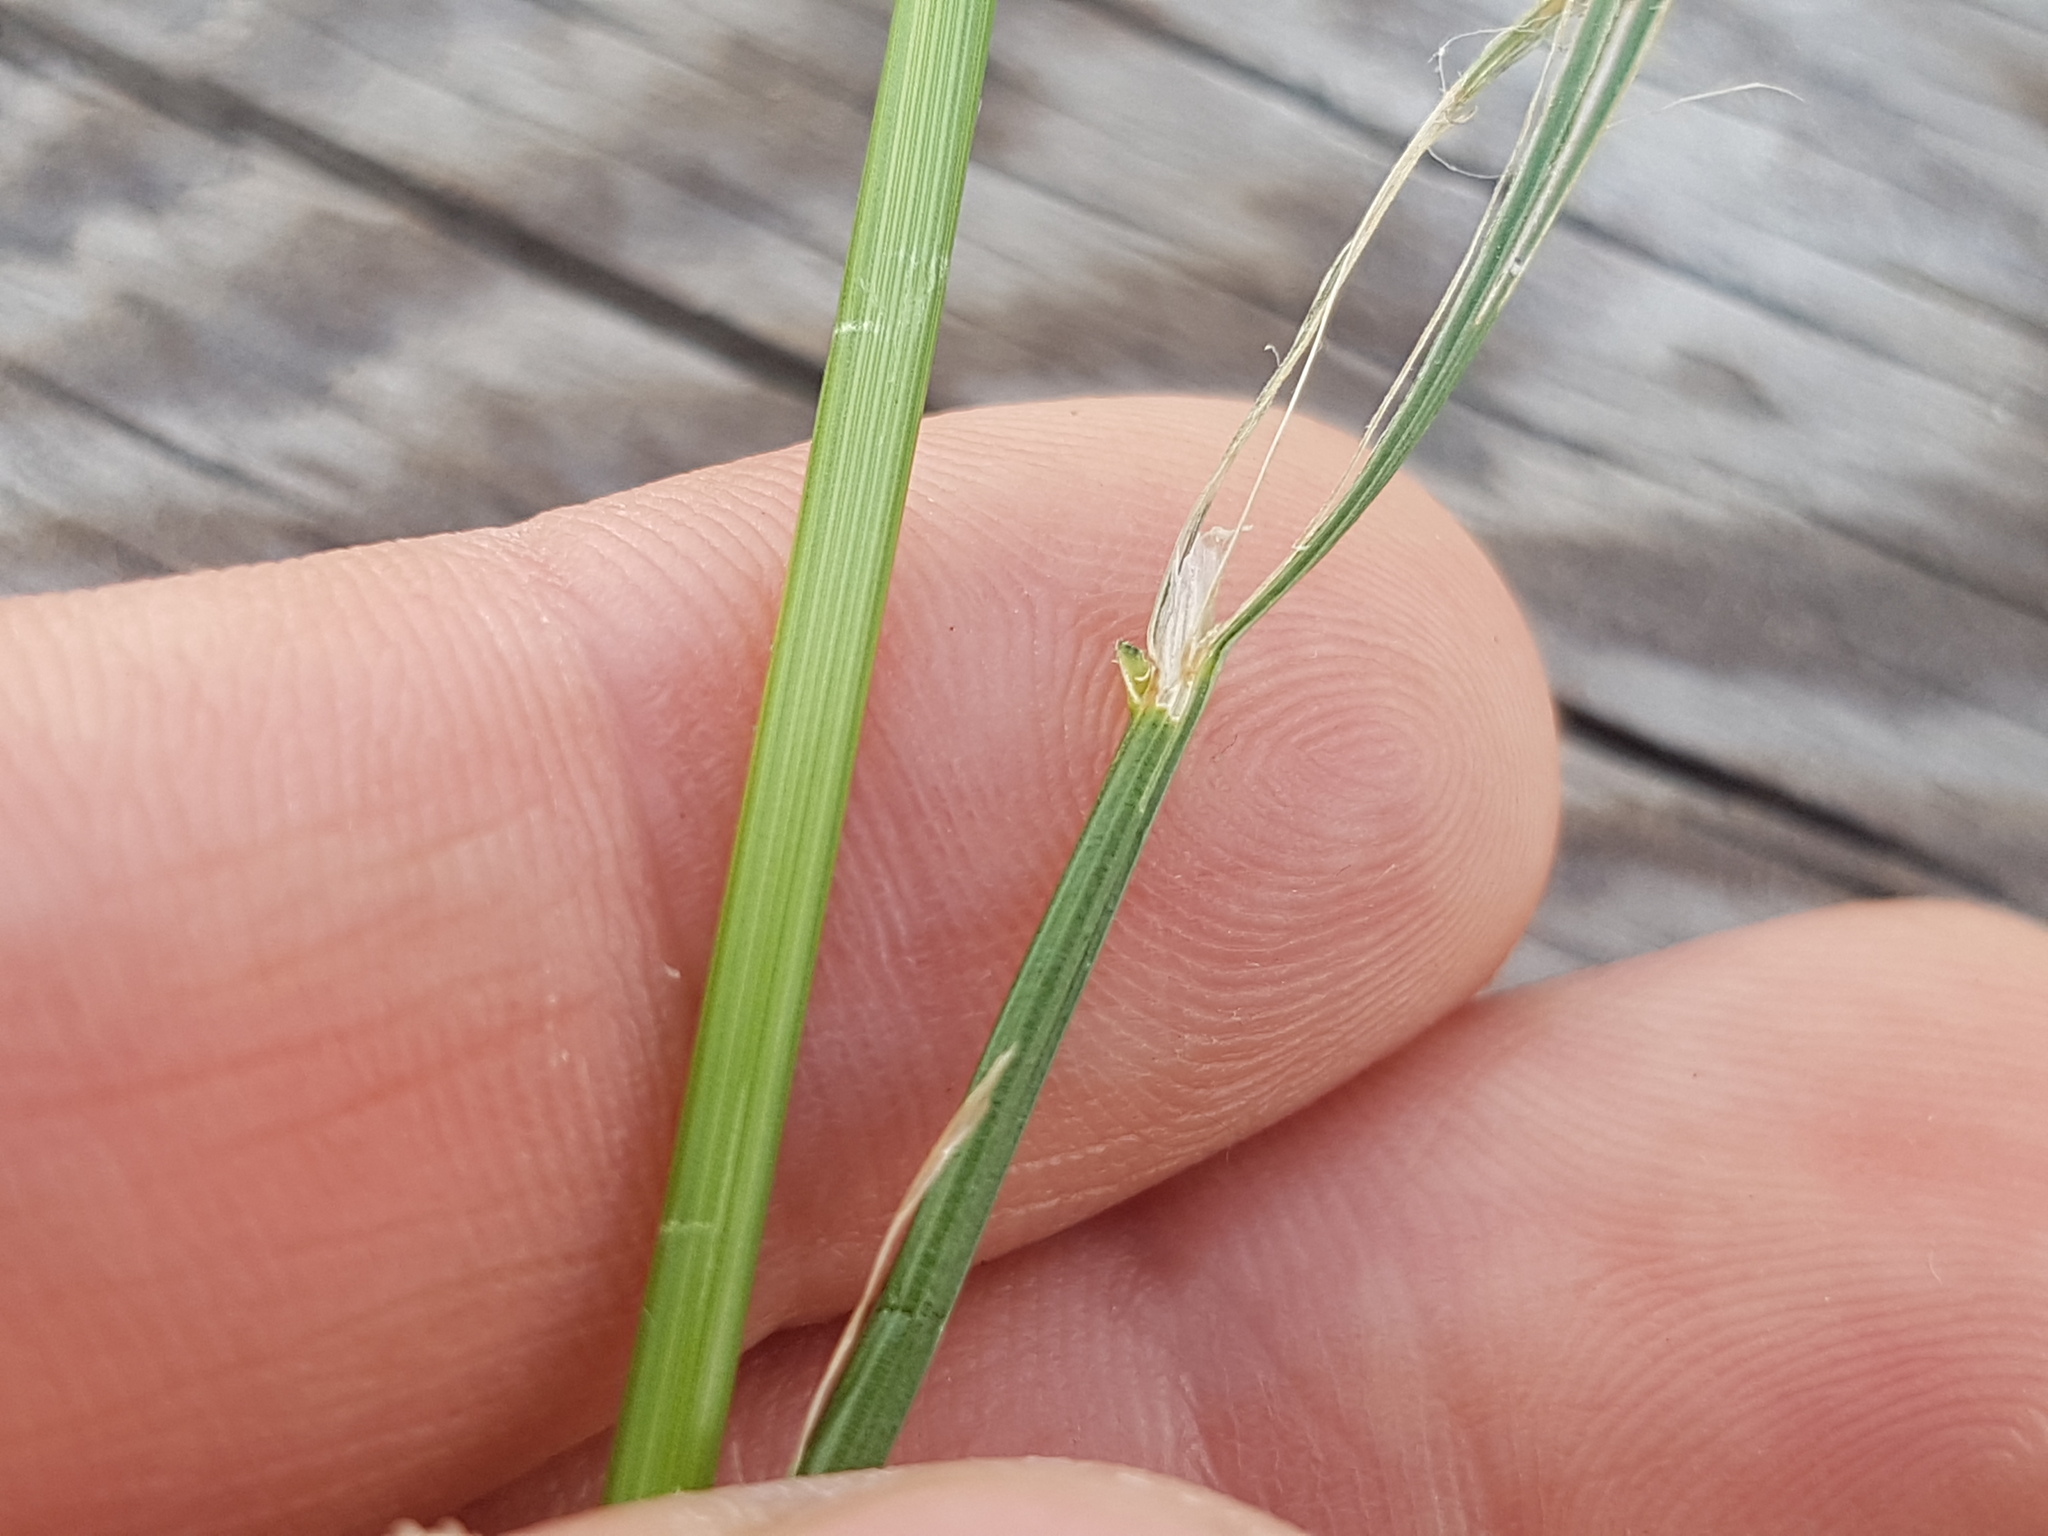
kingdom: Plantae
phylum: Tracheophyta
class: Liliopsida
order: Poales
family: Poaceae
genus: Poa
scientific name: Poa palustris
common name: Swamp meadow-grass
